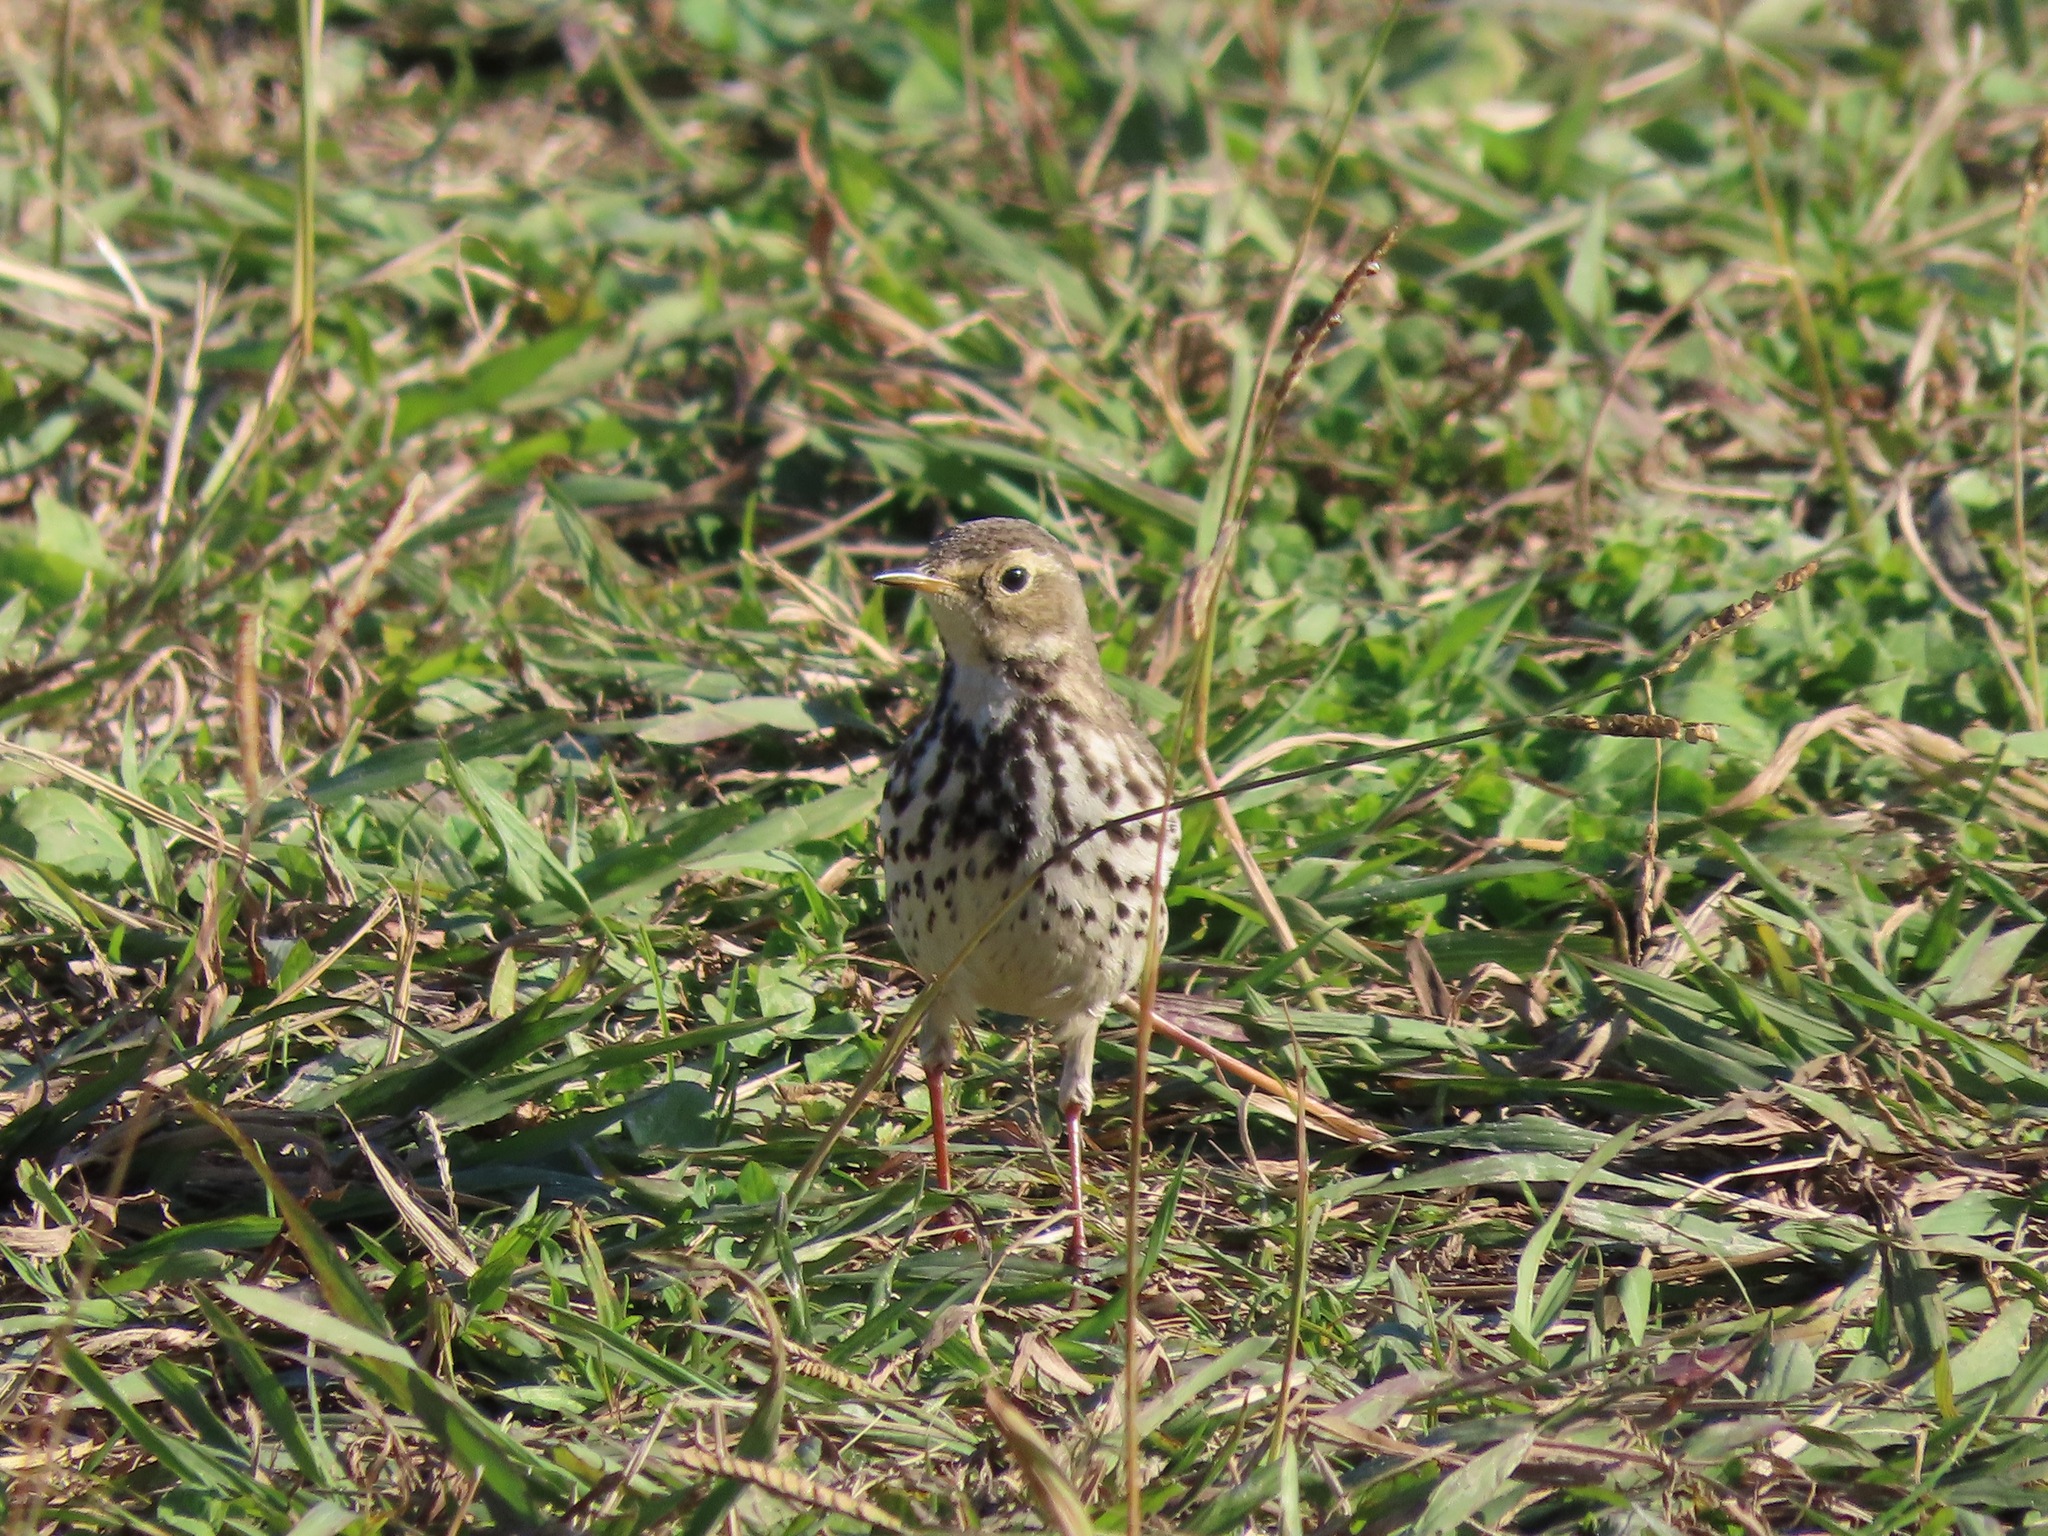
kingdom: Animalia
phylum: Chordata
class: Aves
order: Passeriformes
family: Motacillidae
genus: Anthus
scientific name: Anthus rubescens
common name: Buff-bellied pipit
